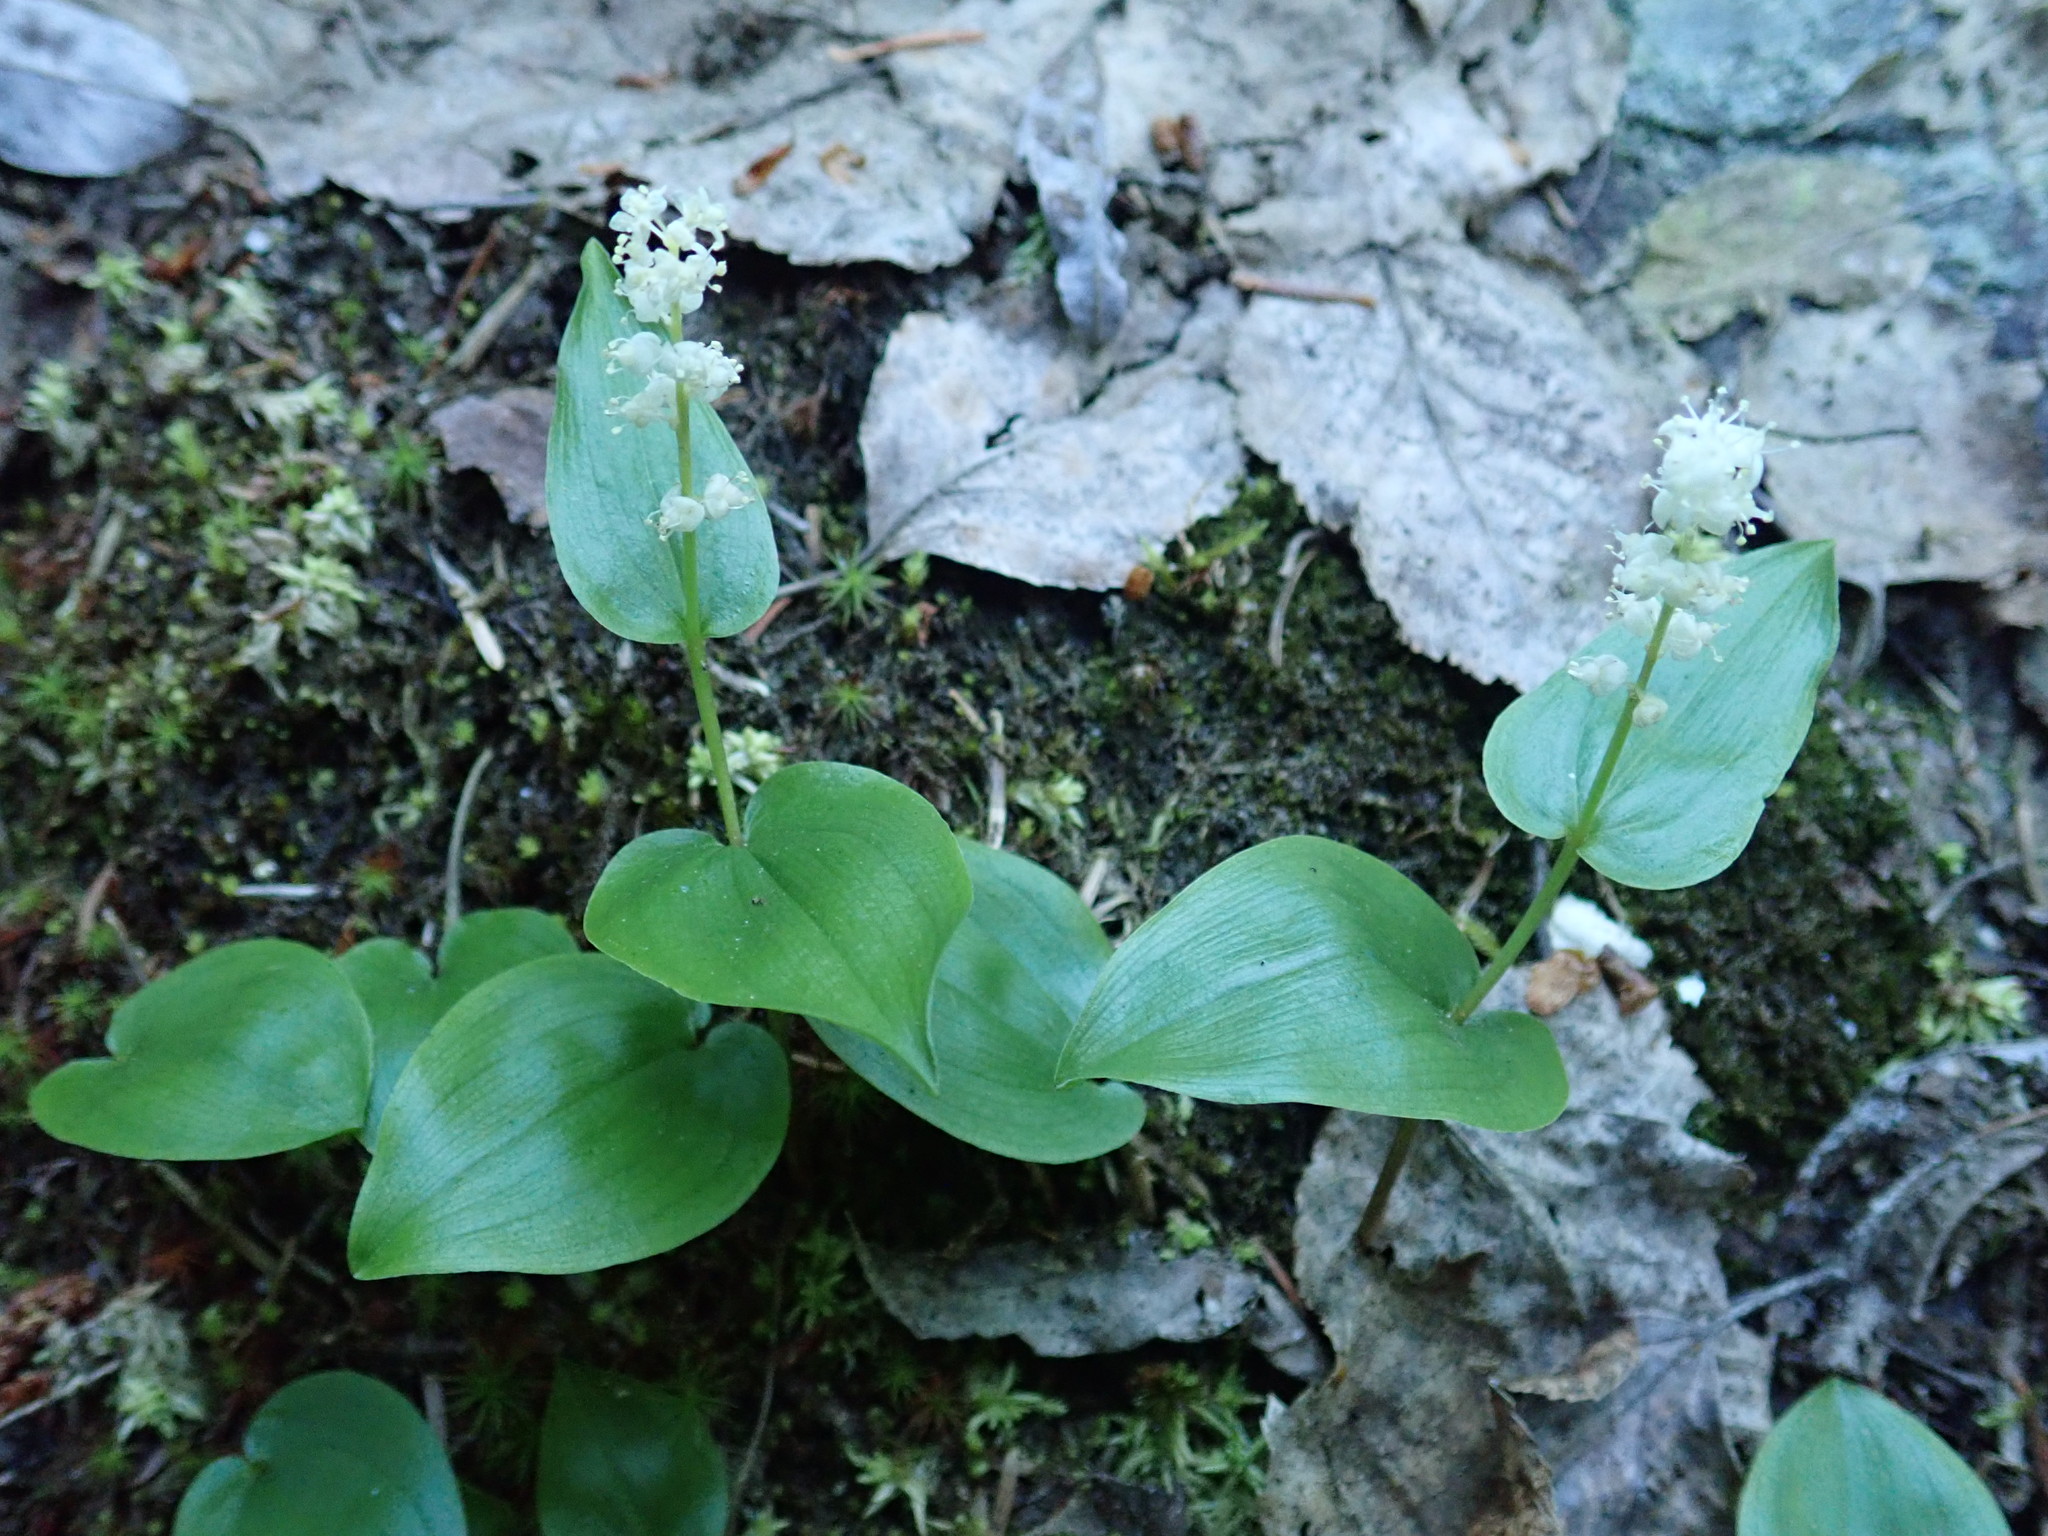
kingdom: Plantae
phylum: Tracheophyta
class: Liliopsida
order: Asparagales
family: Asparagaceae
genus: Maianthemum
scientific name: Maianthemum canadense
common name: False lily-of-the-valley
